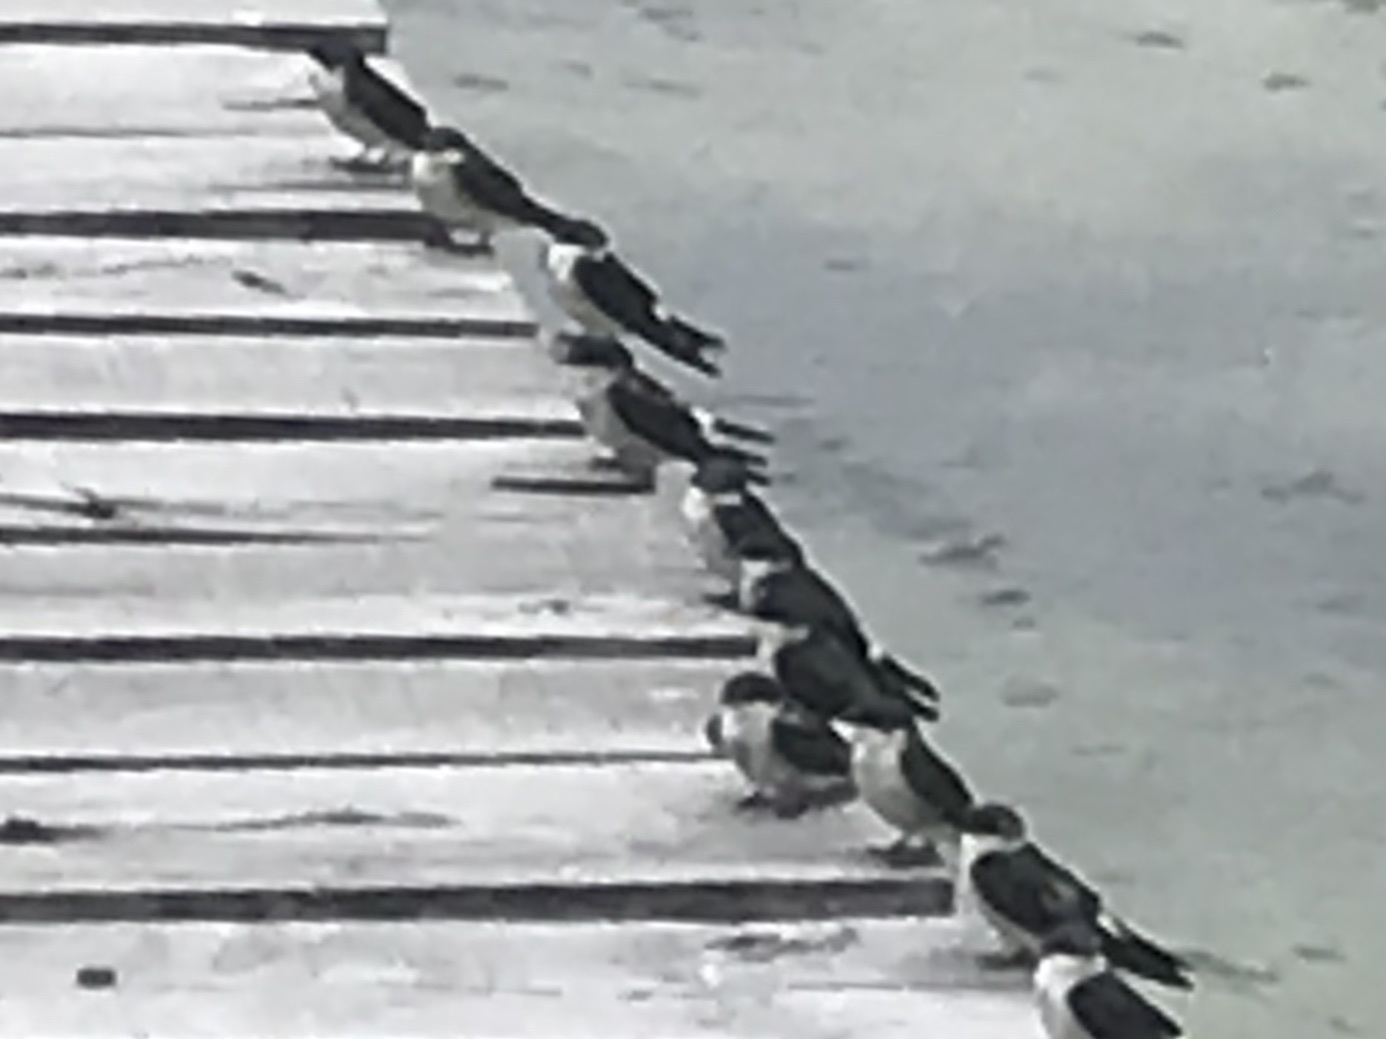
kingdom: Animalia
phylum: Chordata
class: Aves
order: Passeriformes
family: Hirundinidae
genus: Tachycineta
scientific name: Tachycineta albilinea
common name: Mangrove swallow
